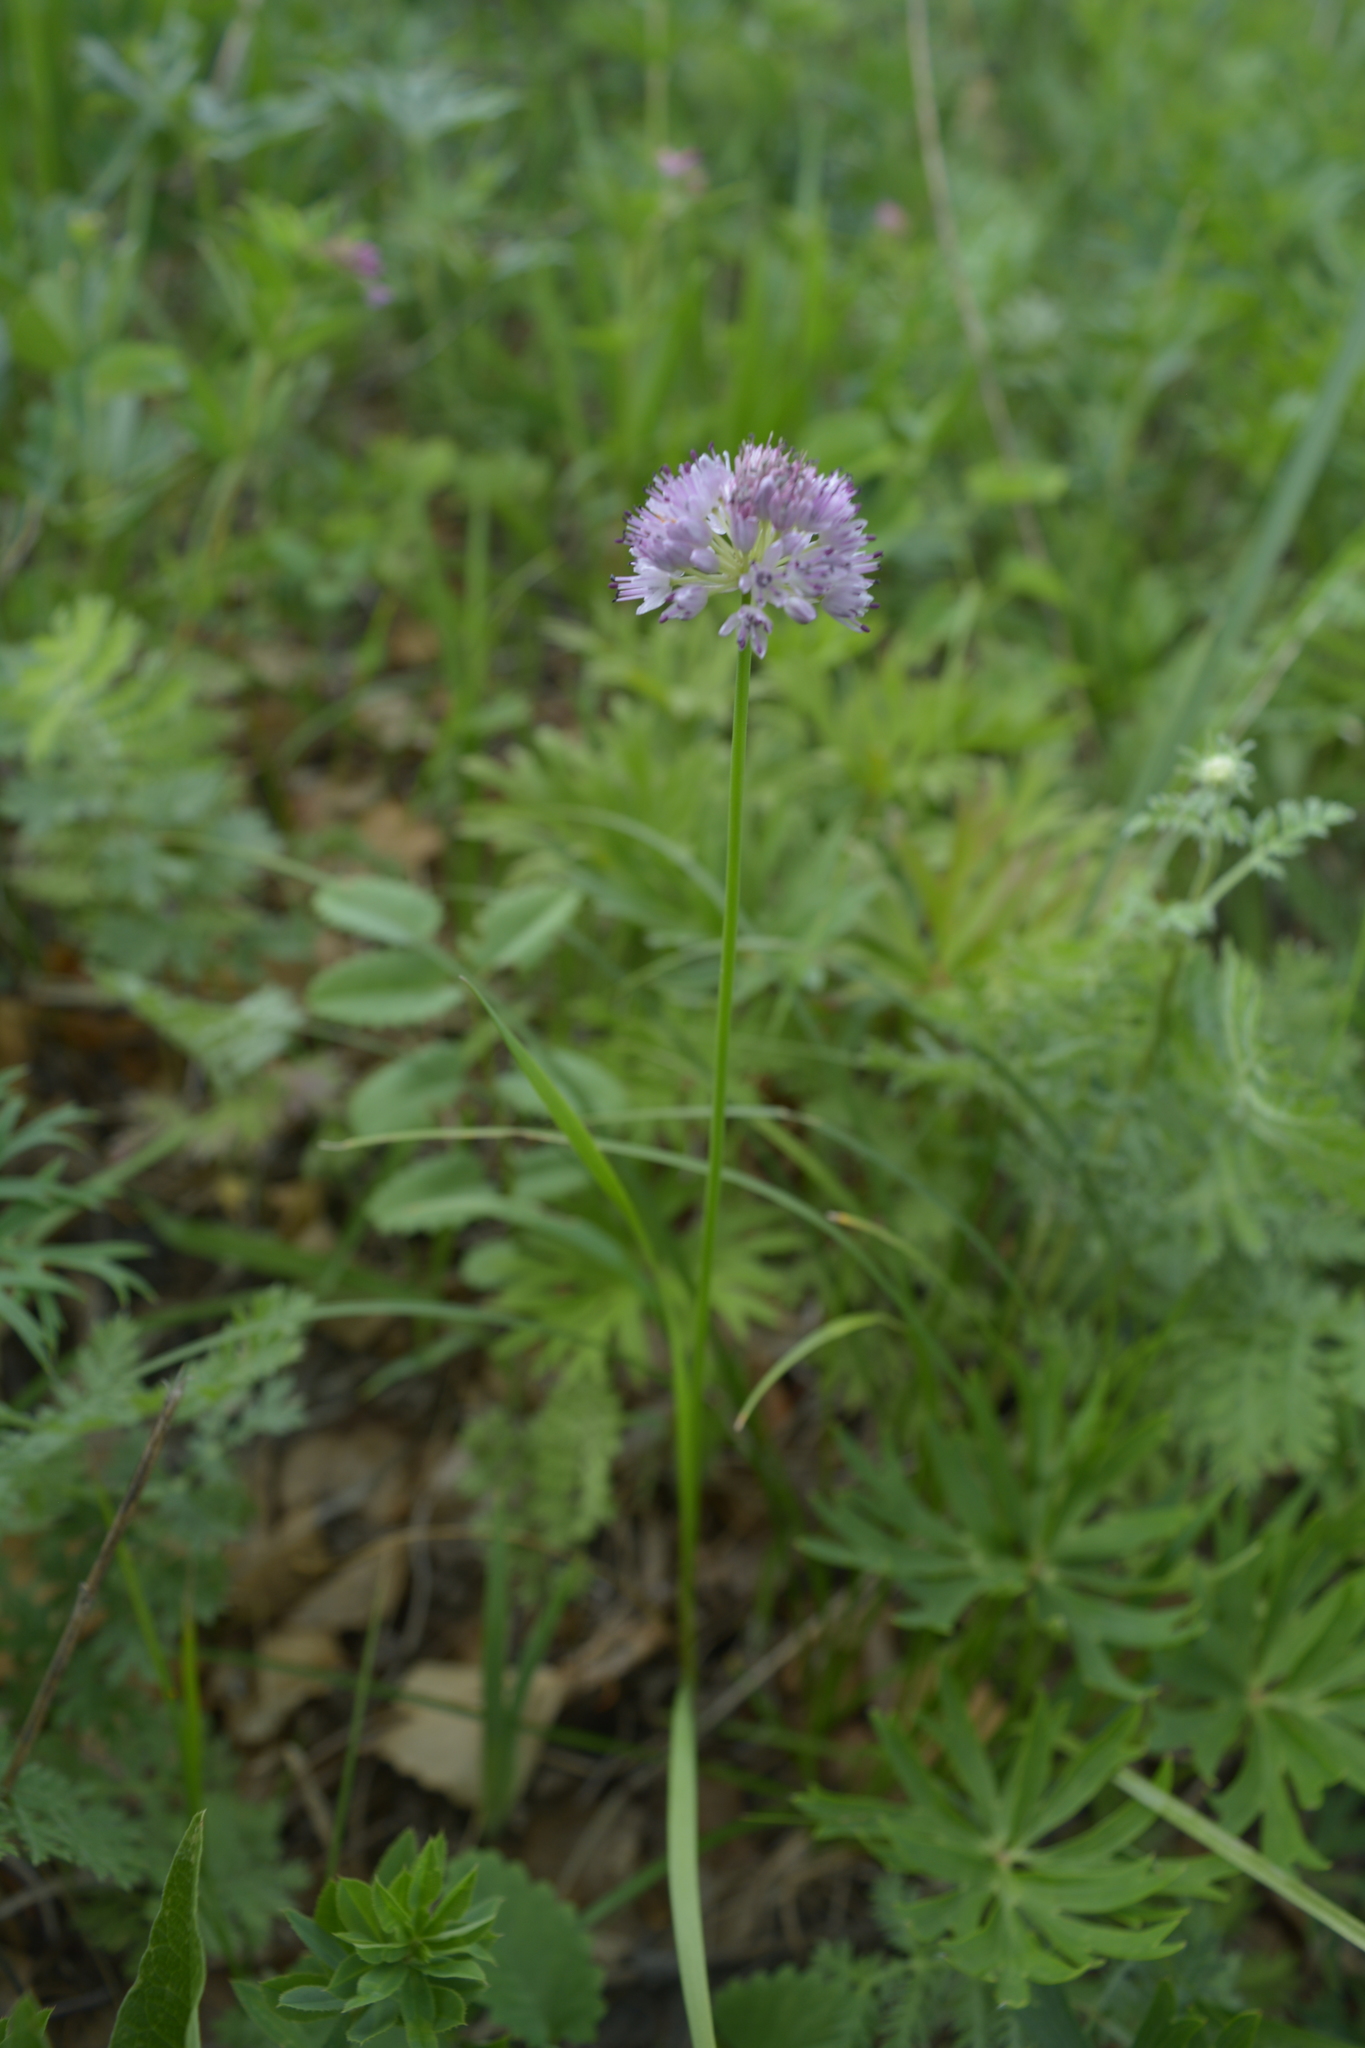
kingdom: Plantae
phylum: Tracheophyta
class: Liliopsida
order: Asparagales
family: Amaryllidaceae
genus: Allium
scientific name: Allium splendens
